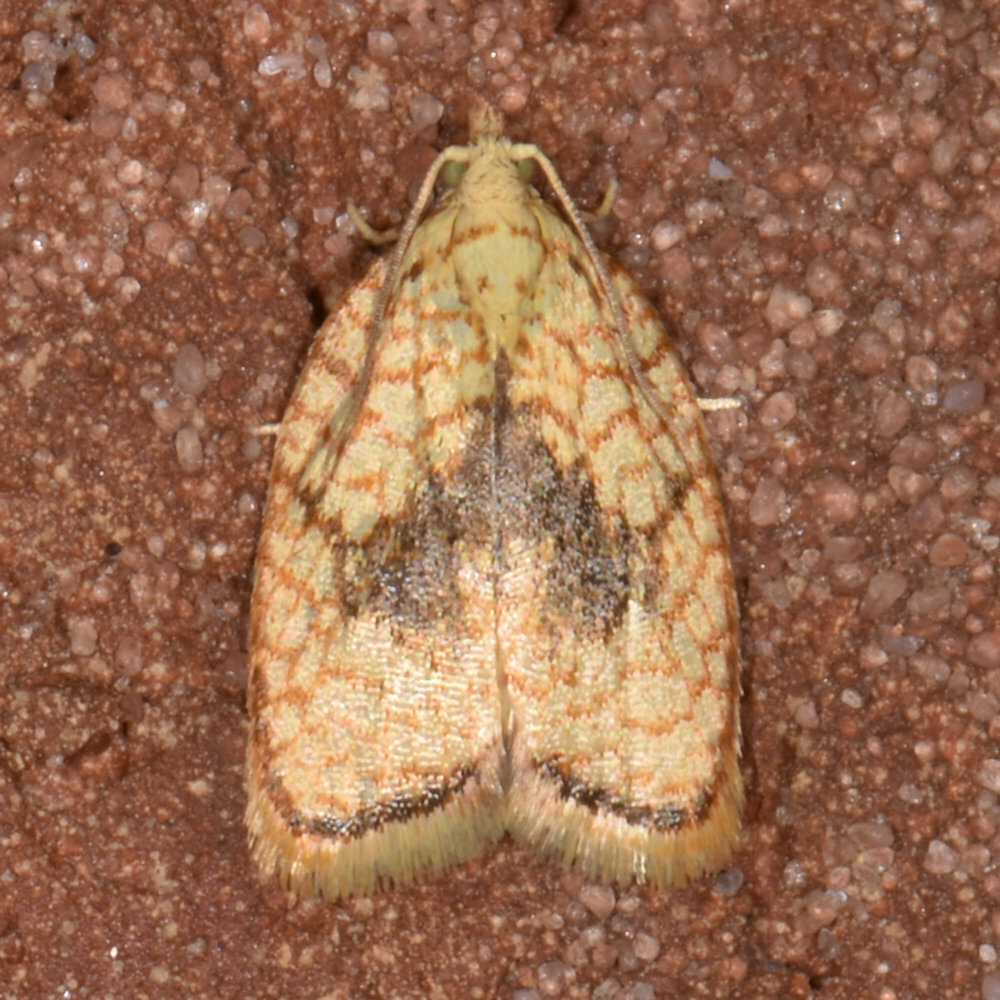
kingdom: Animalia
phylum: Arthropoda
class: Insecta
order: Lepidoptera
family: Tortricidae
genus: Acleris
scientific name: Acleris forsskaleana
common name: Maple button
